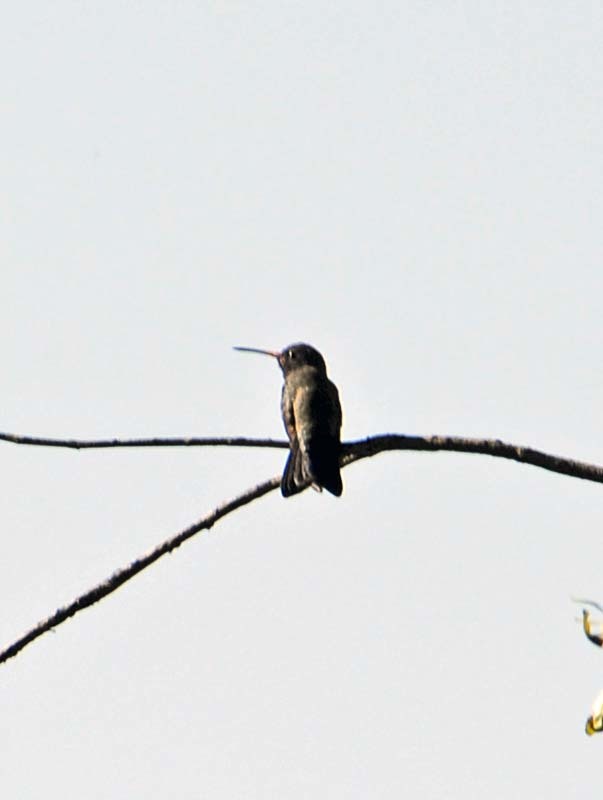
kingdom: Animalia
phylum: Chordata
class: Aves
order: Apodiformes
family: Trochilidae
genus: Cynanthus
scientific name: Cynanthus latirostris
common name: Broad-billed hummingbird
